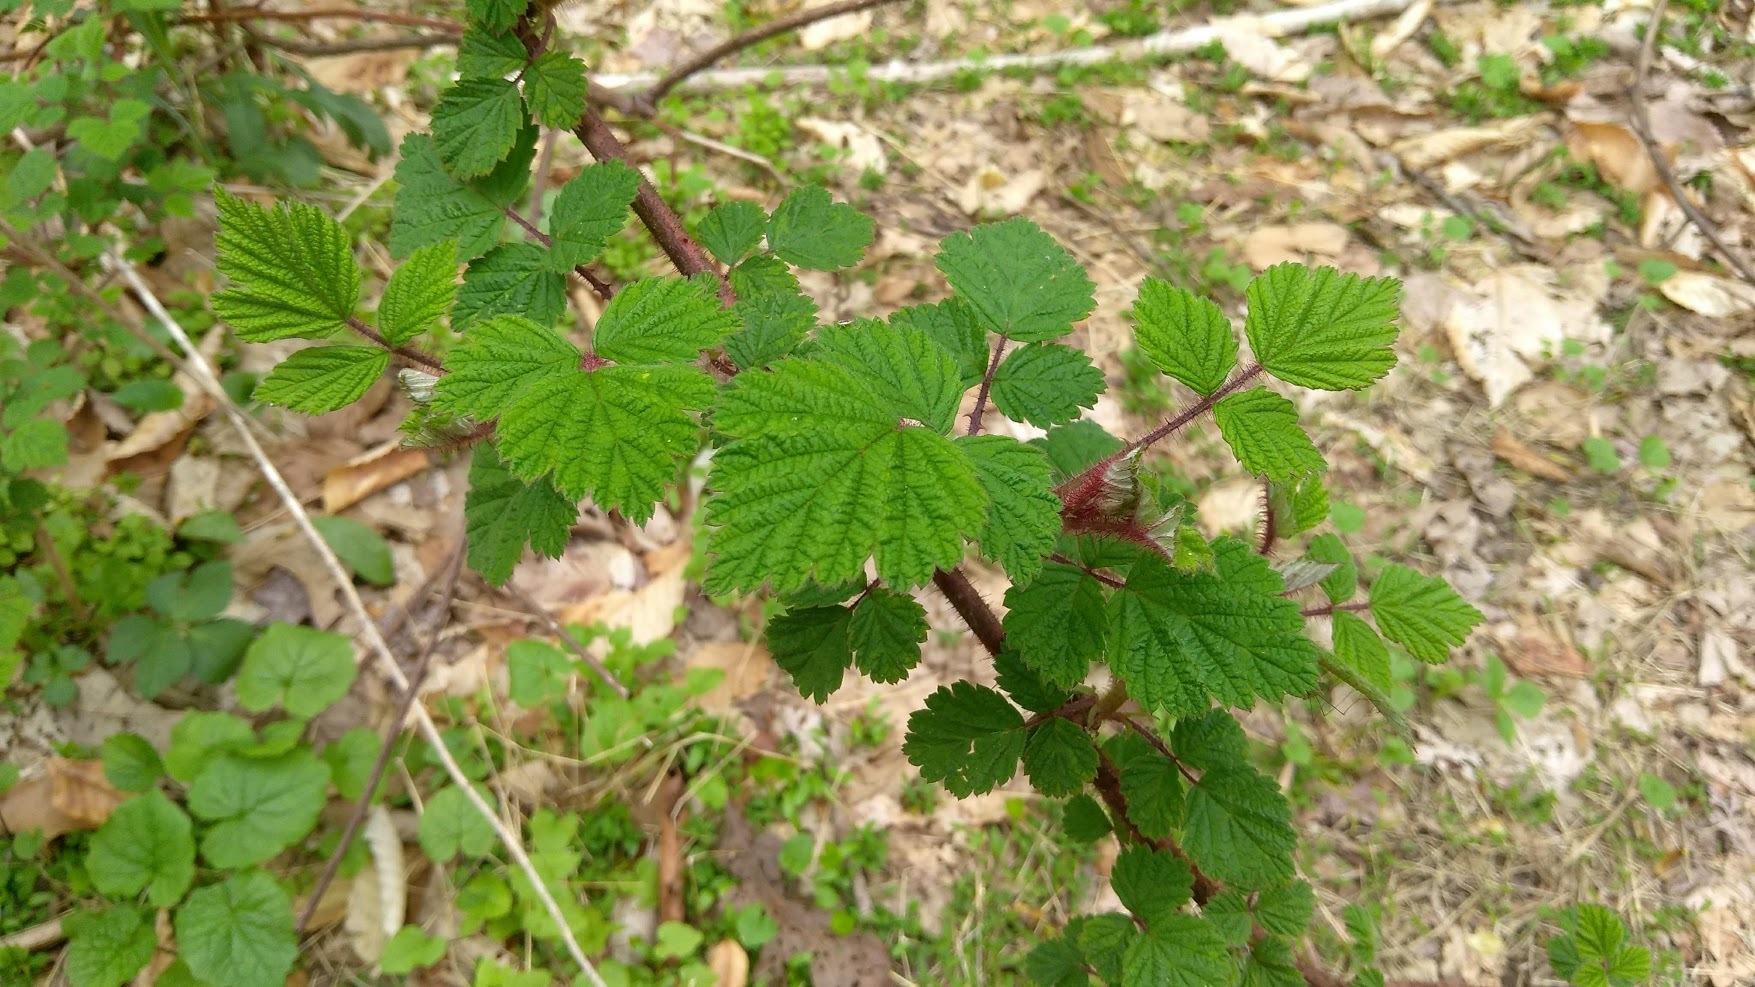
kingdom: Plantae
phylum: Tracheophyta
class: Magnoliopsida
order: Rosales
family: Rosaceae
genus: Rubus
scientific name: Rubus phoenicolasius
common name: Japanese wineberry
